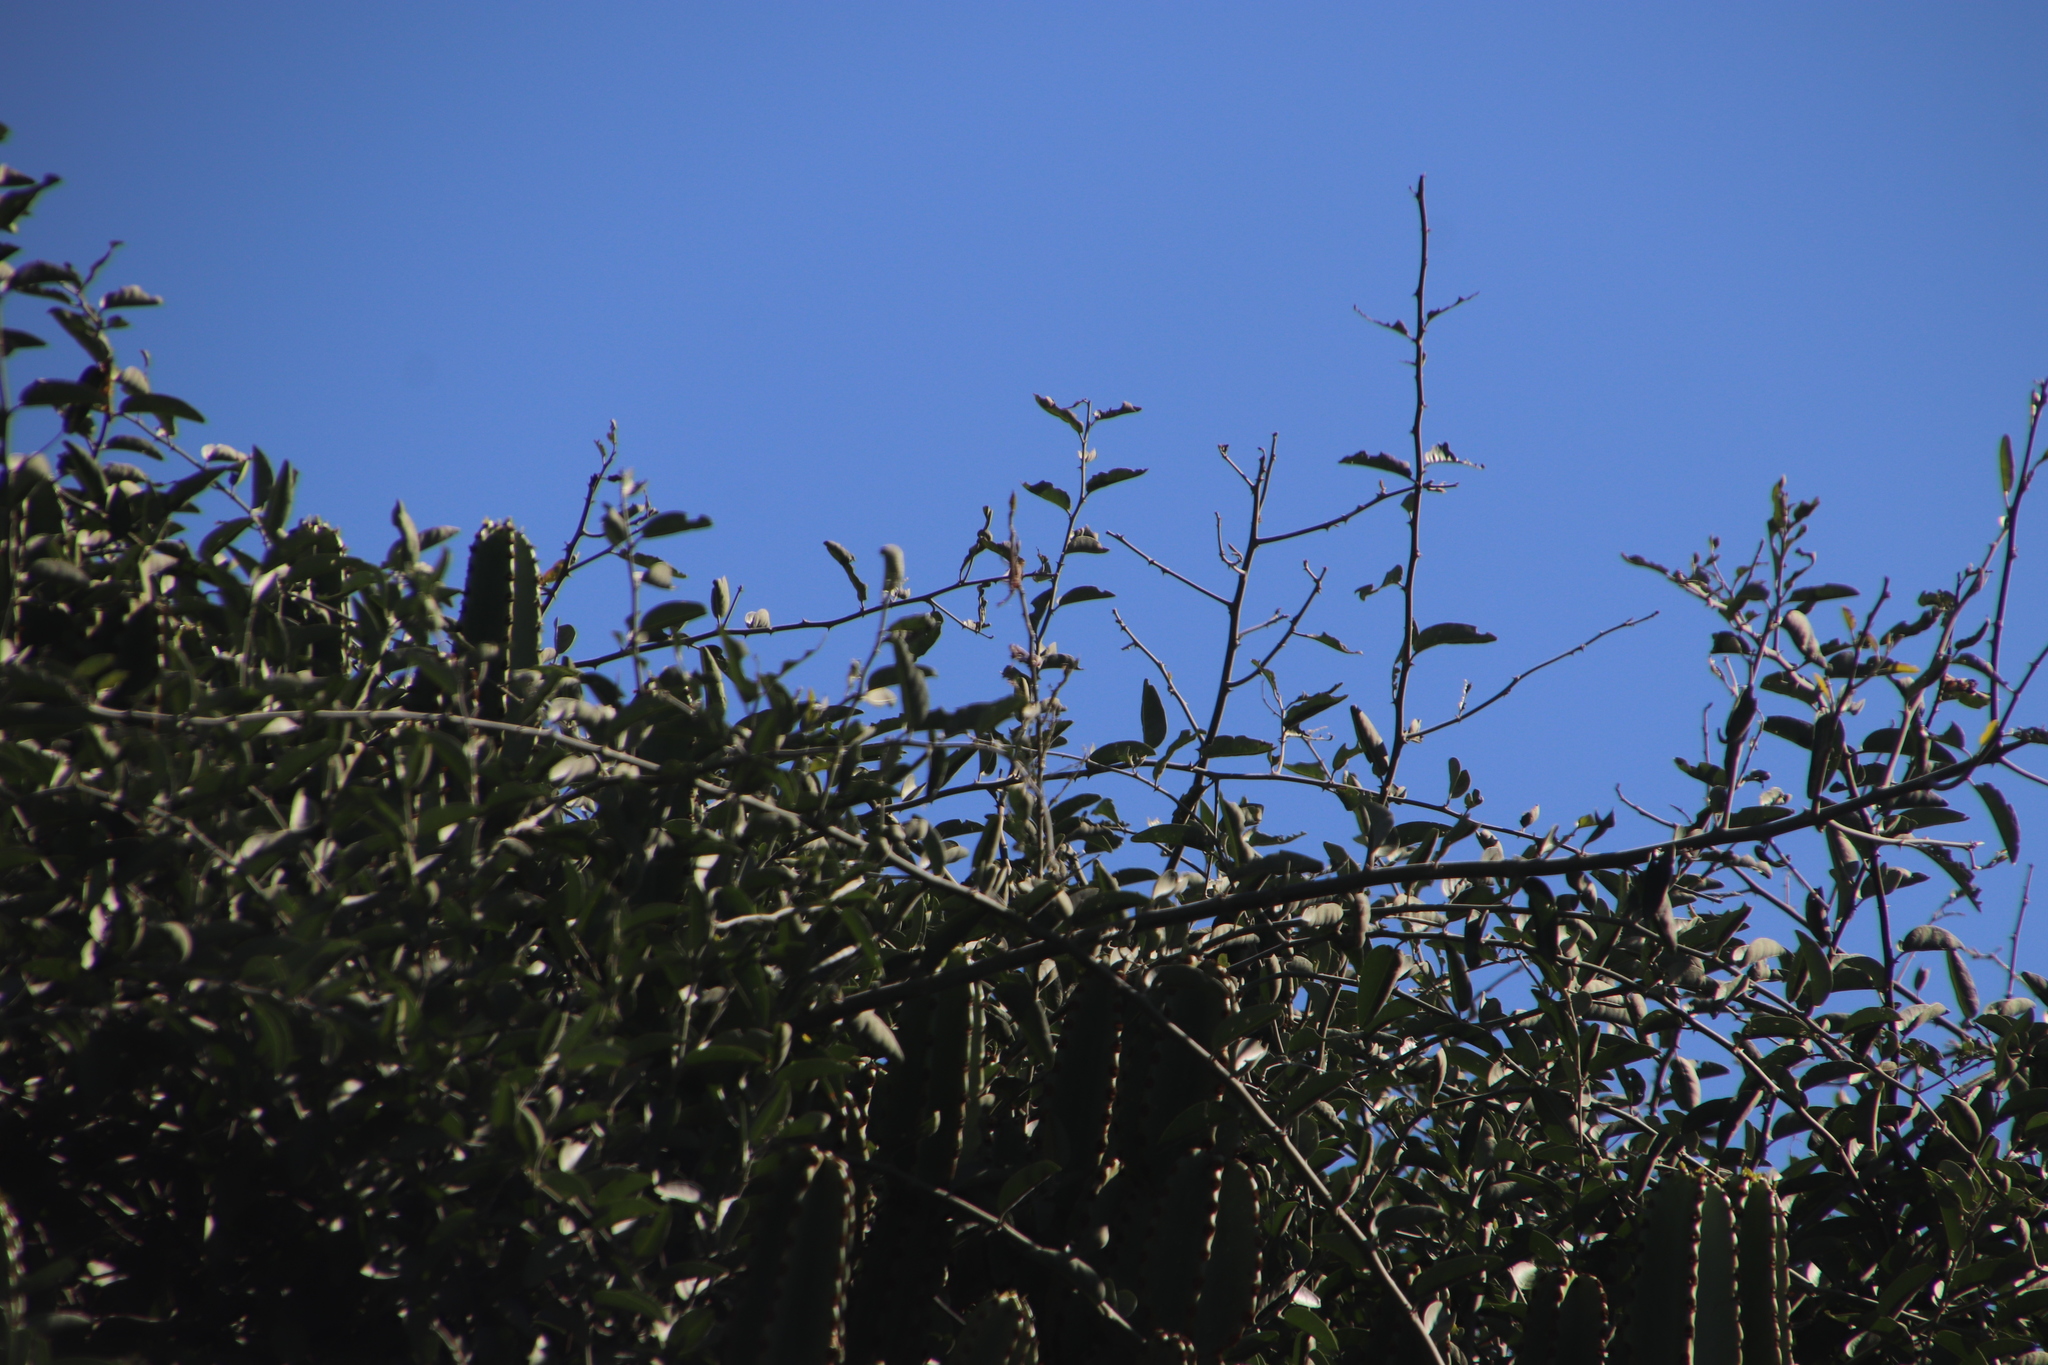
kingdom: Plantae
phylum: Tracheophyta
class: Magnoliopsida
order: Brassicales
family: Capparaceae
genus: Capparis
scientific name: Capparis tomentosa
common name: African caper
